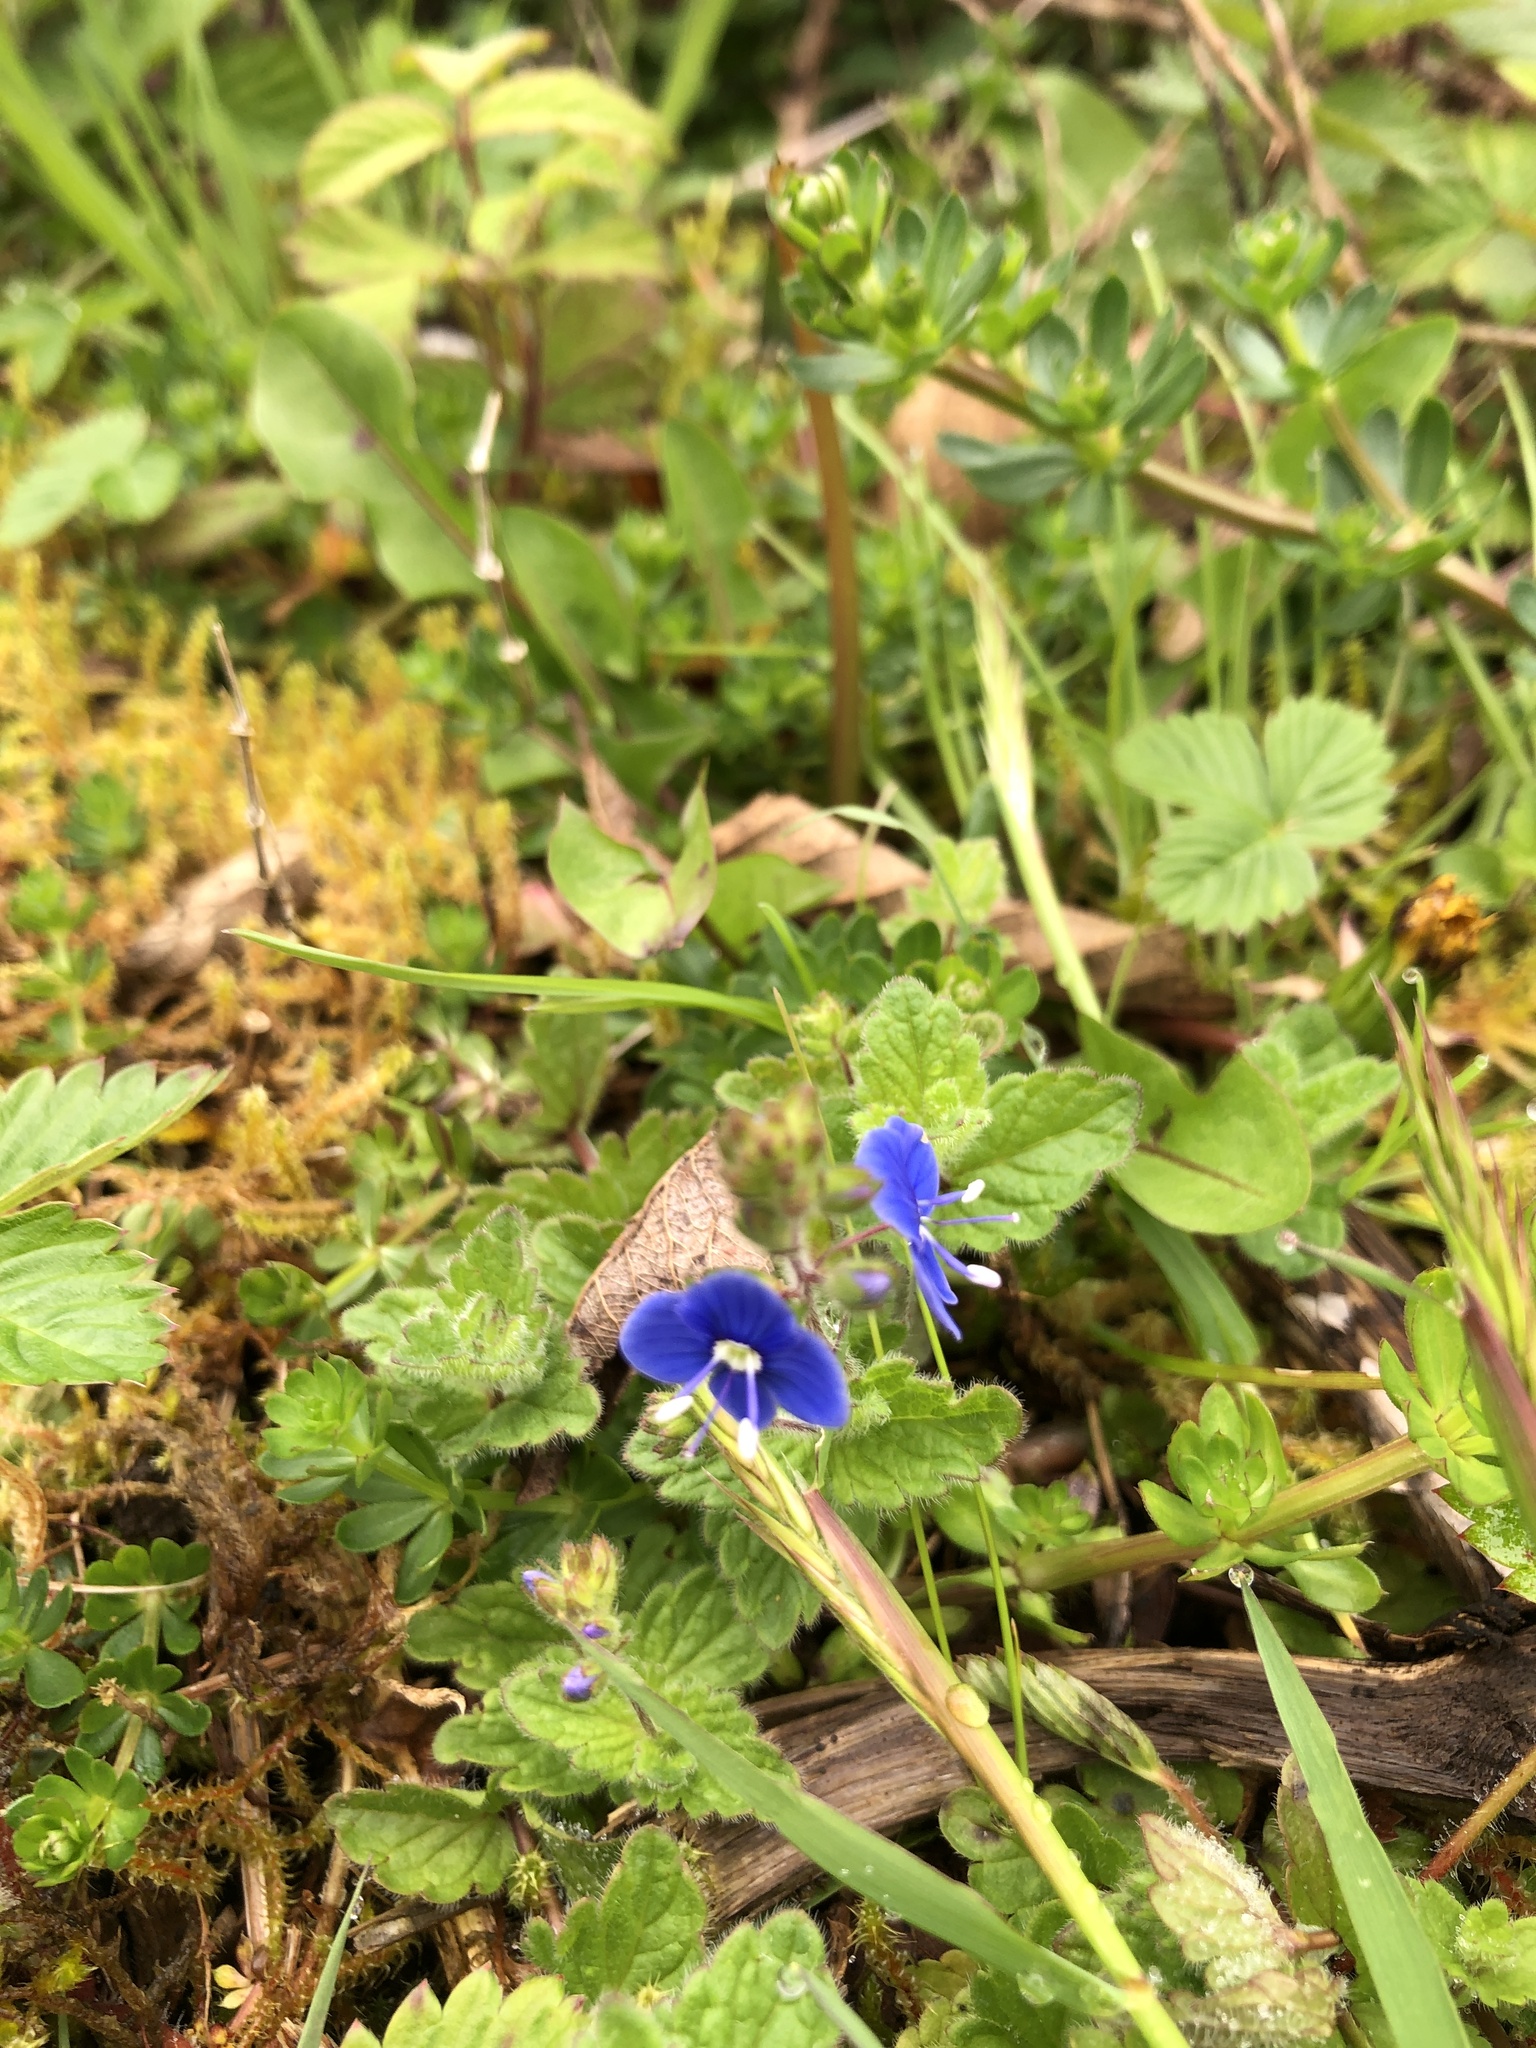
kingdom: Plantae
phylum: Tracheophyta
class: Magnoliopsida
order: Lamiales
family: Plantaginaceae
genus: Veronica
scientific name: Veronica chamaedrys
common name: Germander speedwell
